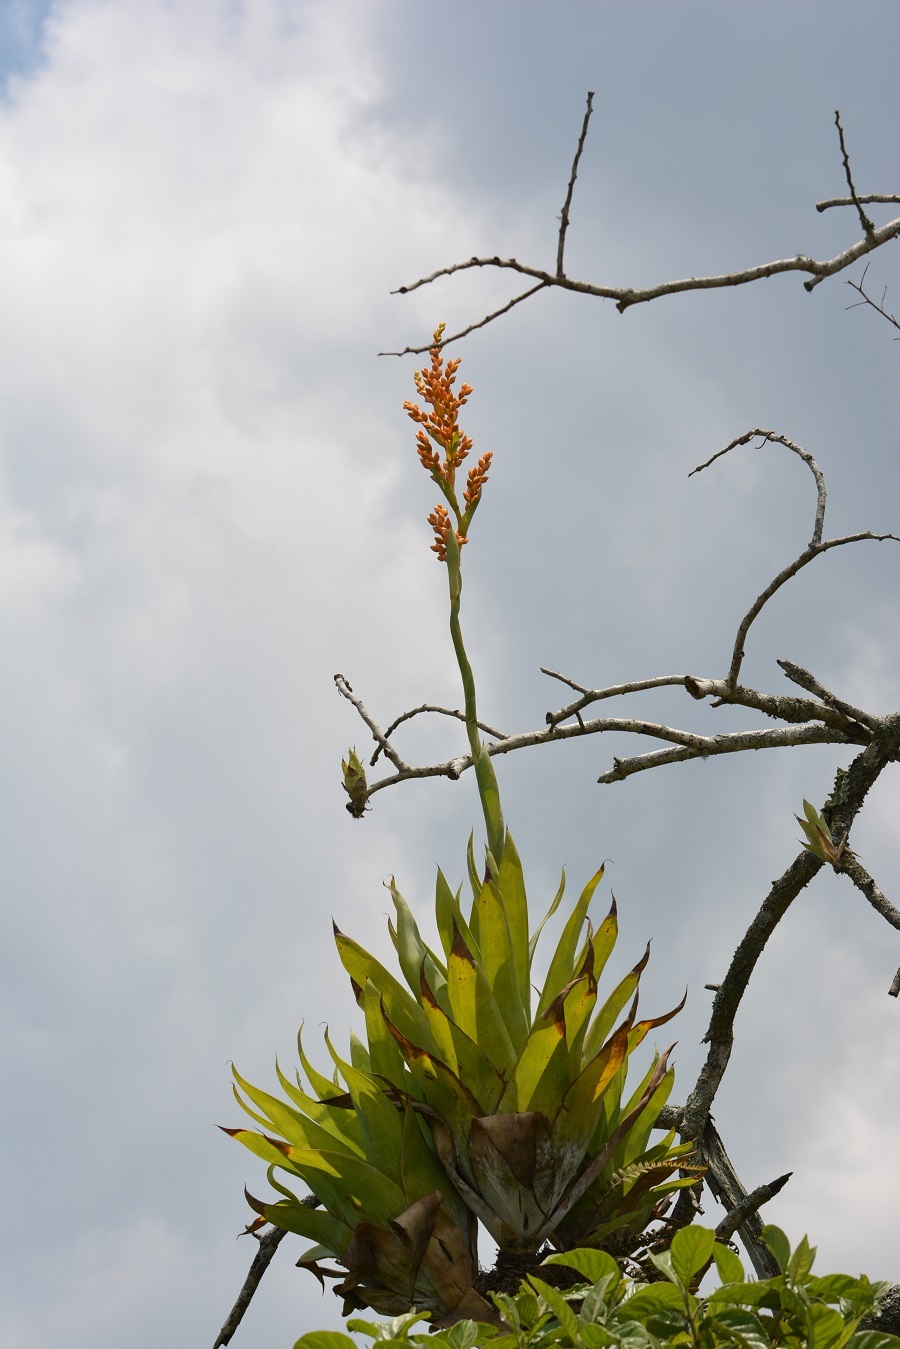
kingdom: Plantae
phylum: Tracheophyta
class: Liliopsida
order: Poales
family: Bromeliaceae
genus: Catopsis
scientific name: Catopsis occulta
